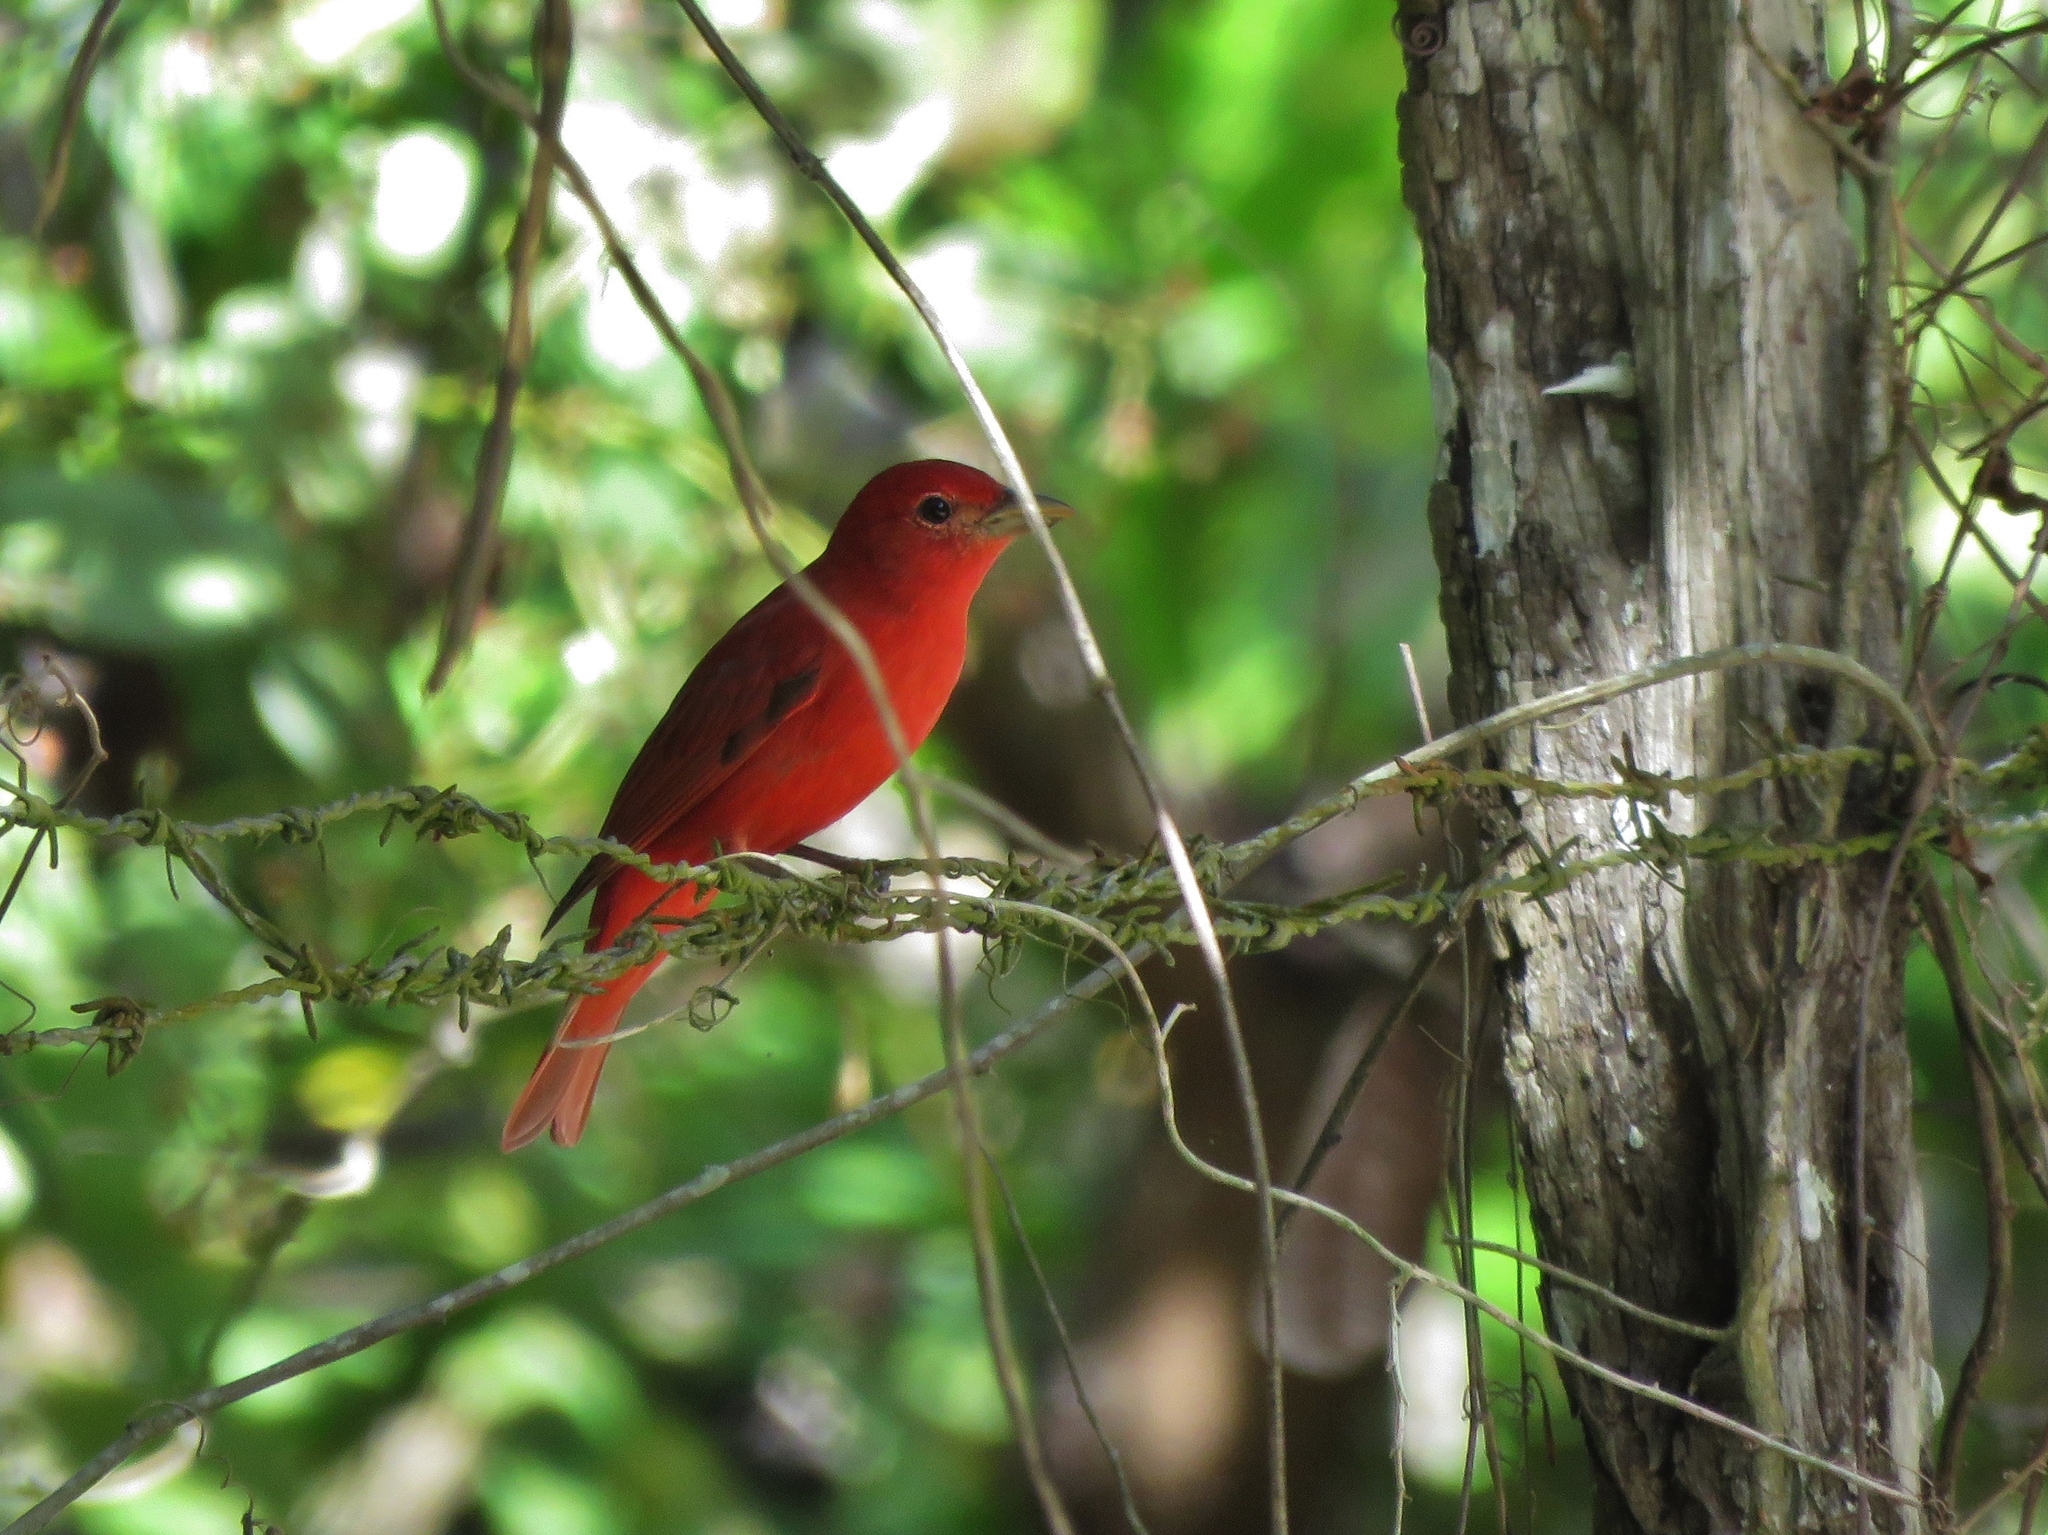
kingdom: Animalia
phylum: Chordata
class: Aves
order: Passeriformes
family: Cardinalidae
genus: Piranga
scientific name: Piranga rubra
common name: Summer tanager
